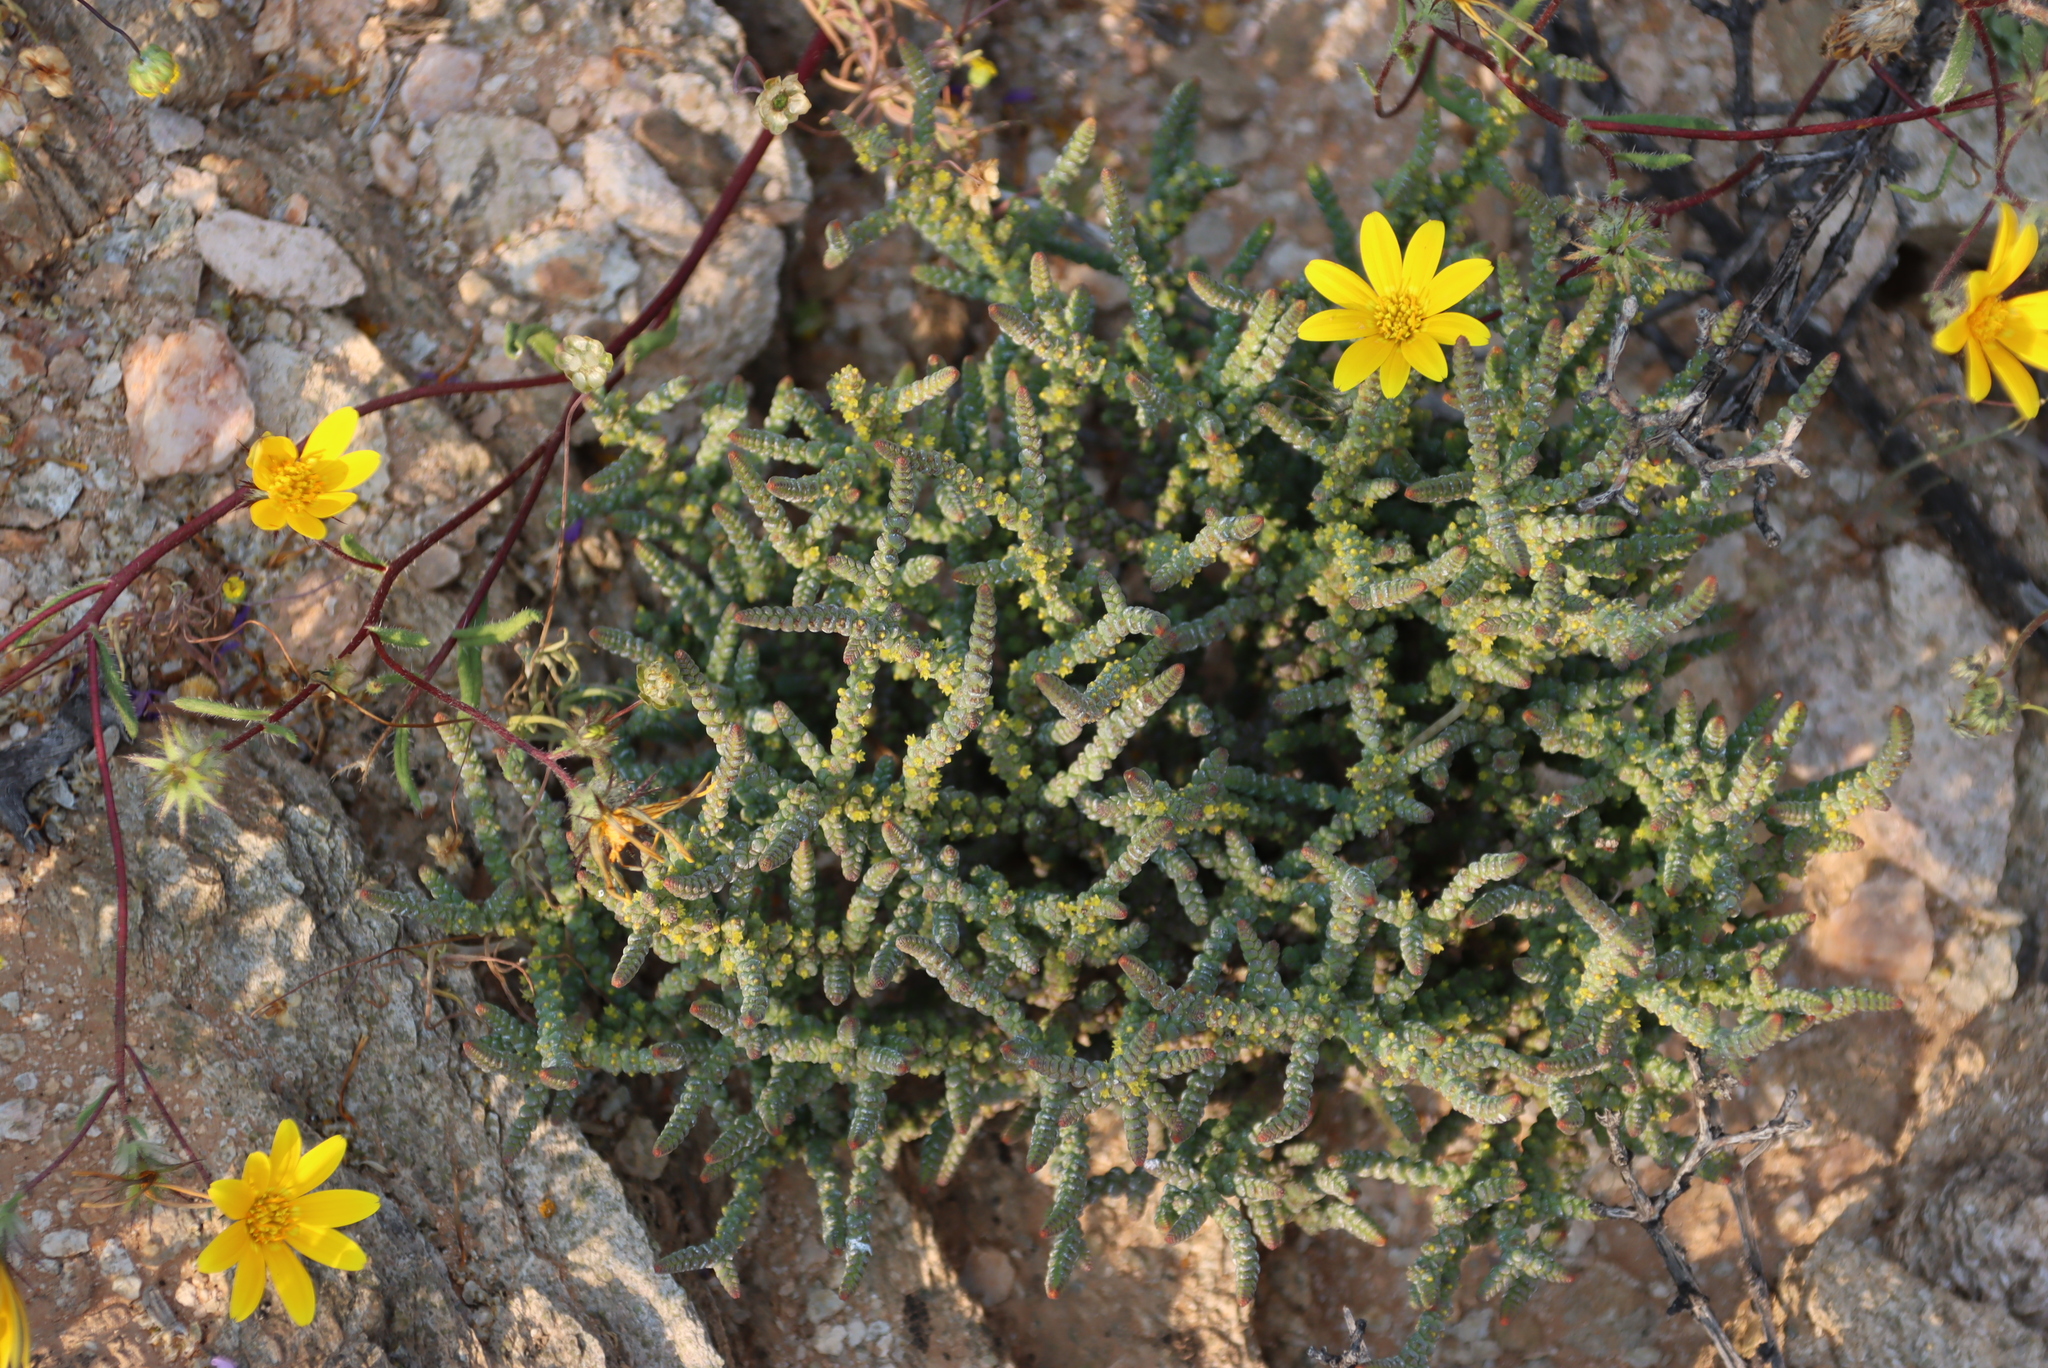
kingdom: Plantae
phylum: Tracheophyta
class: Magnoliopsida
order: Saxifragales
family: Crassulaceae
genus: Crassula
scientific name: Crassula muscosa
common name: Toy-cypress
